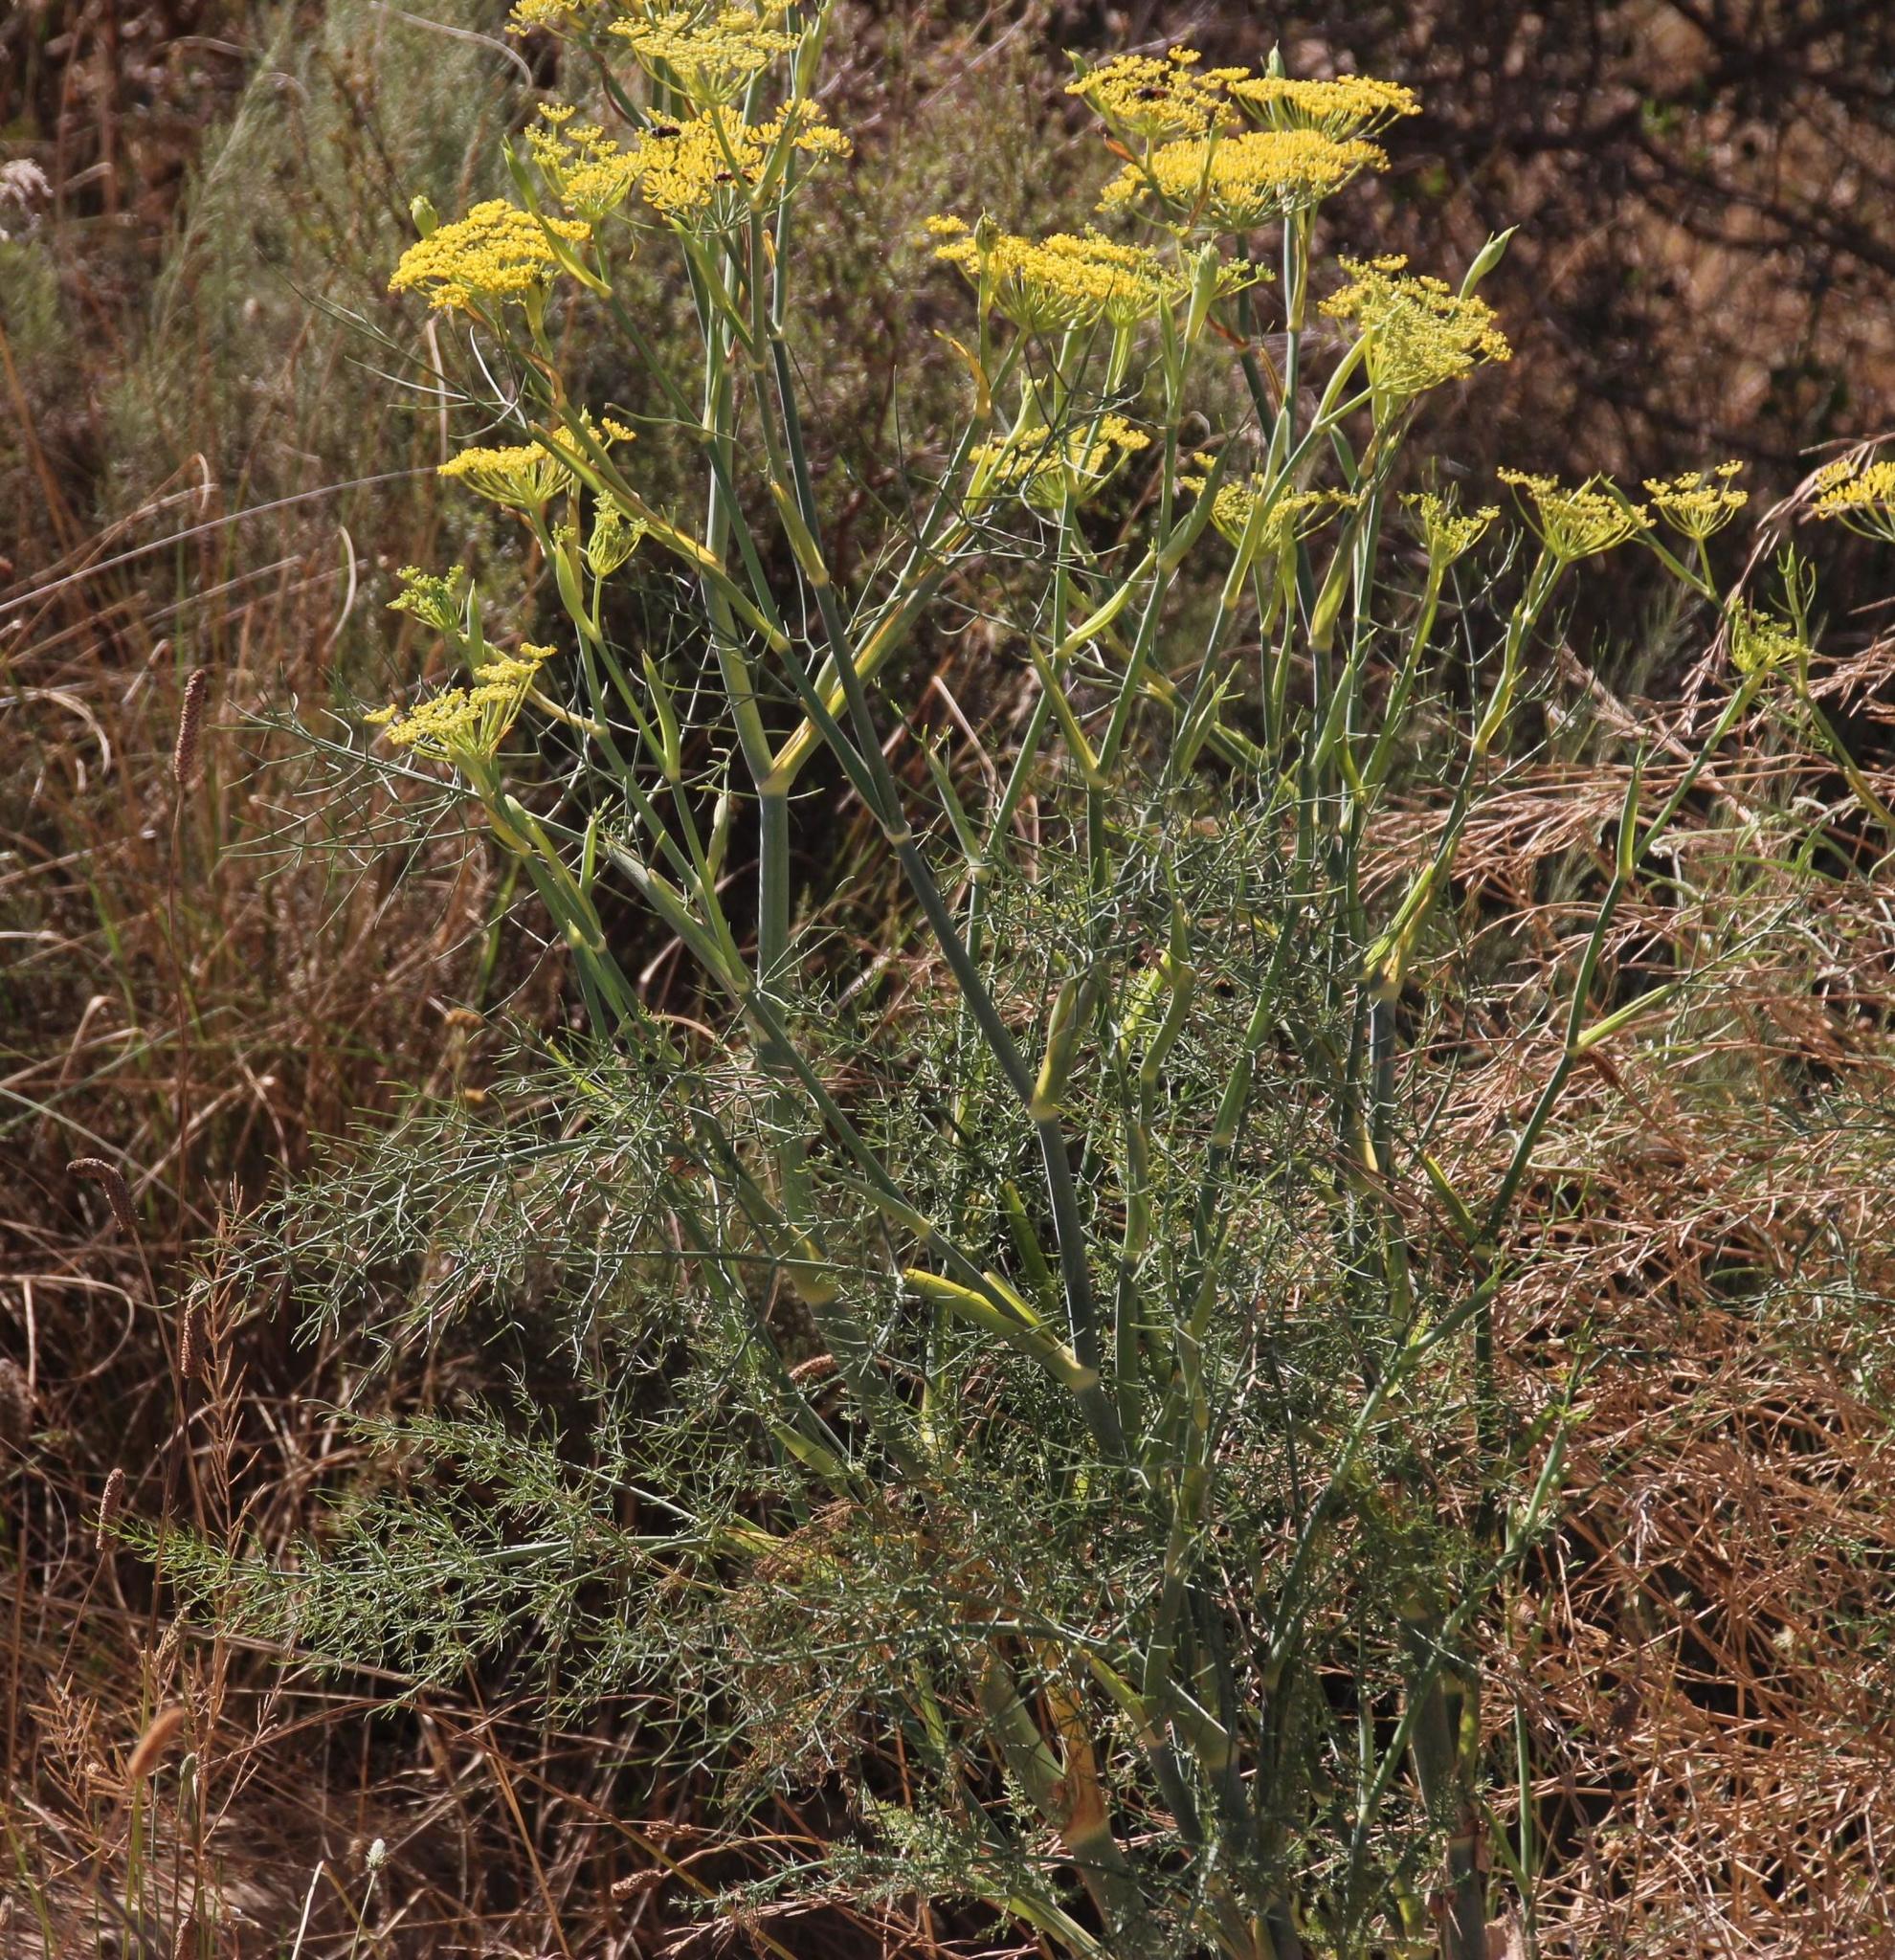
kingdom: Plantae
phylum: Tracheophyta
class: Magnoliopsida
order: Apiales
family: Apiaceae
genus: Foeniculum
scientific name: Foeniculum vulgare
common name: Fennel
